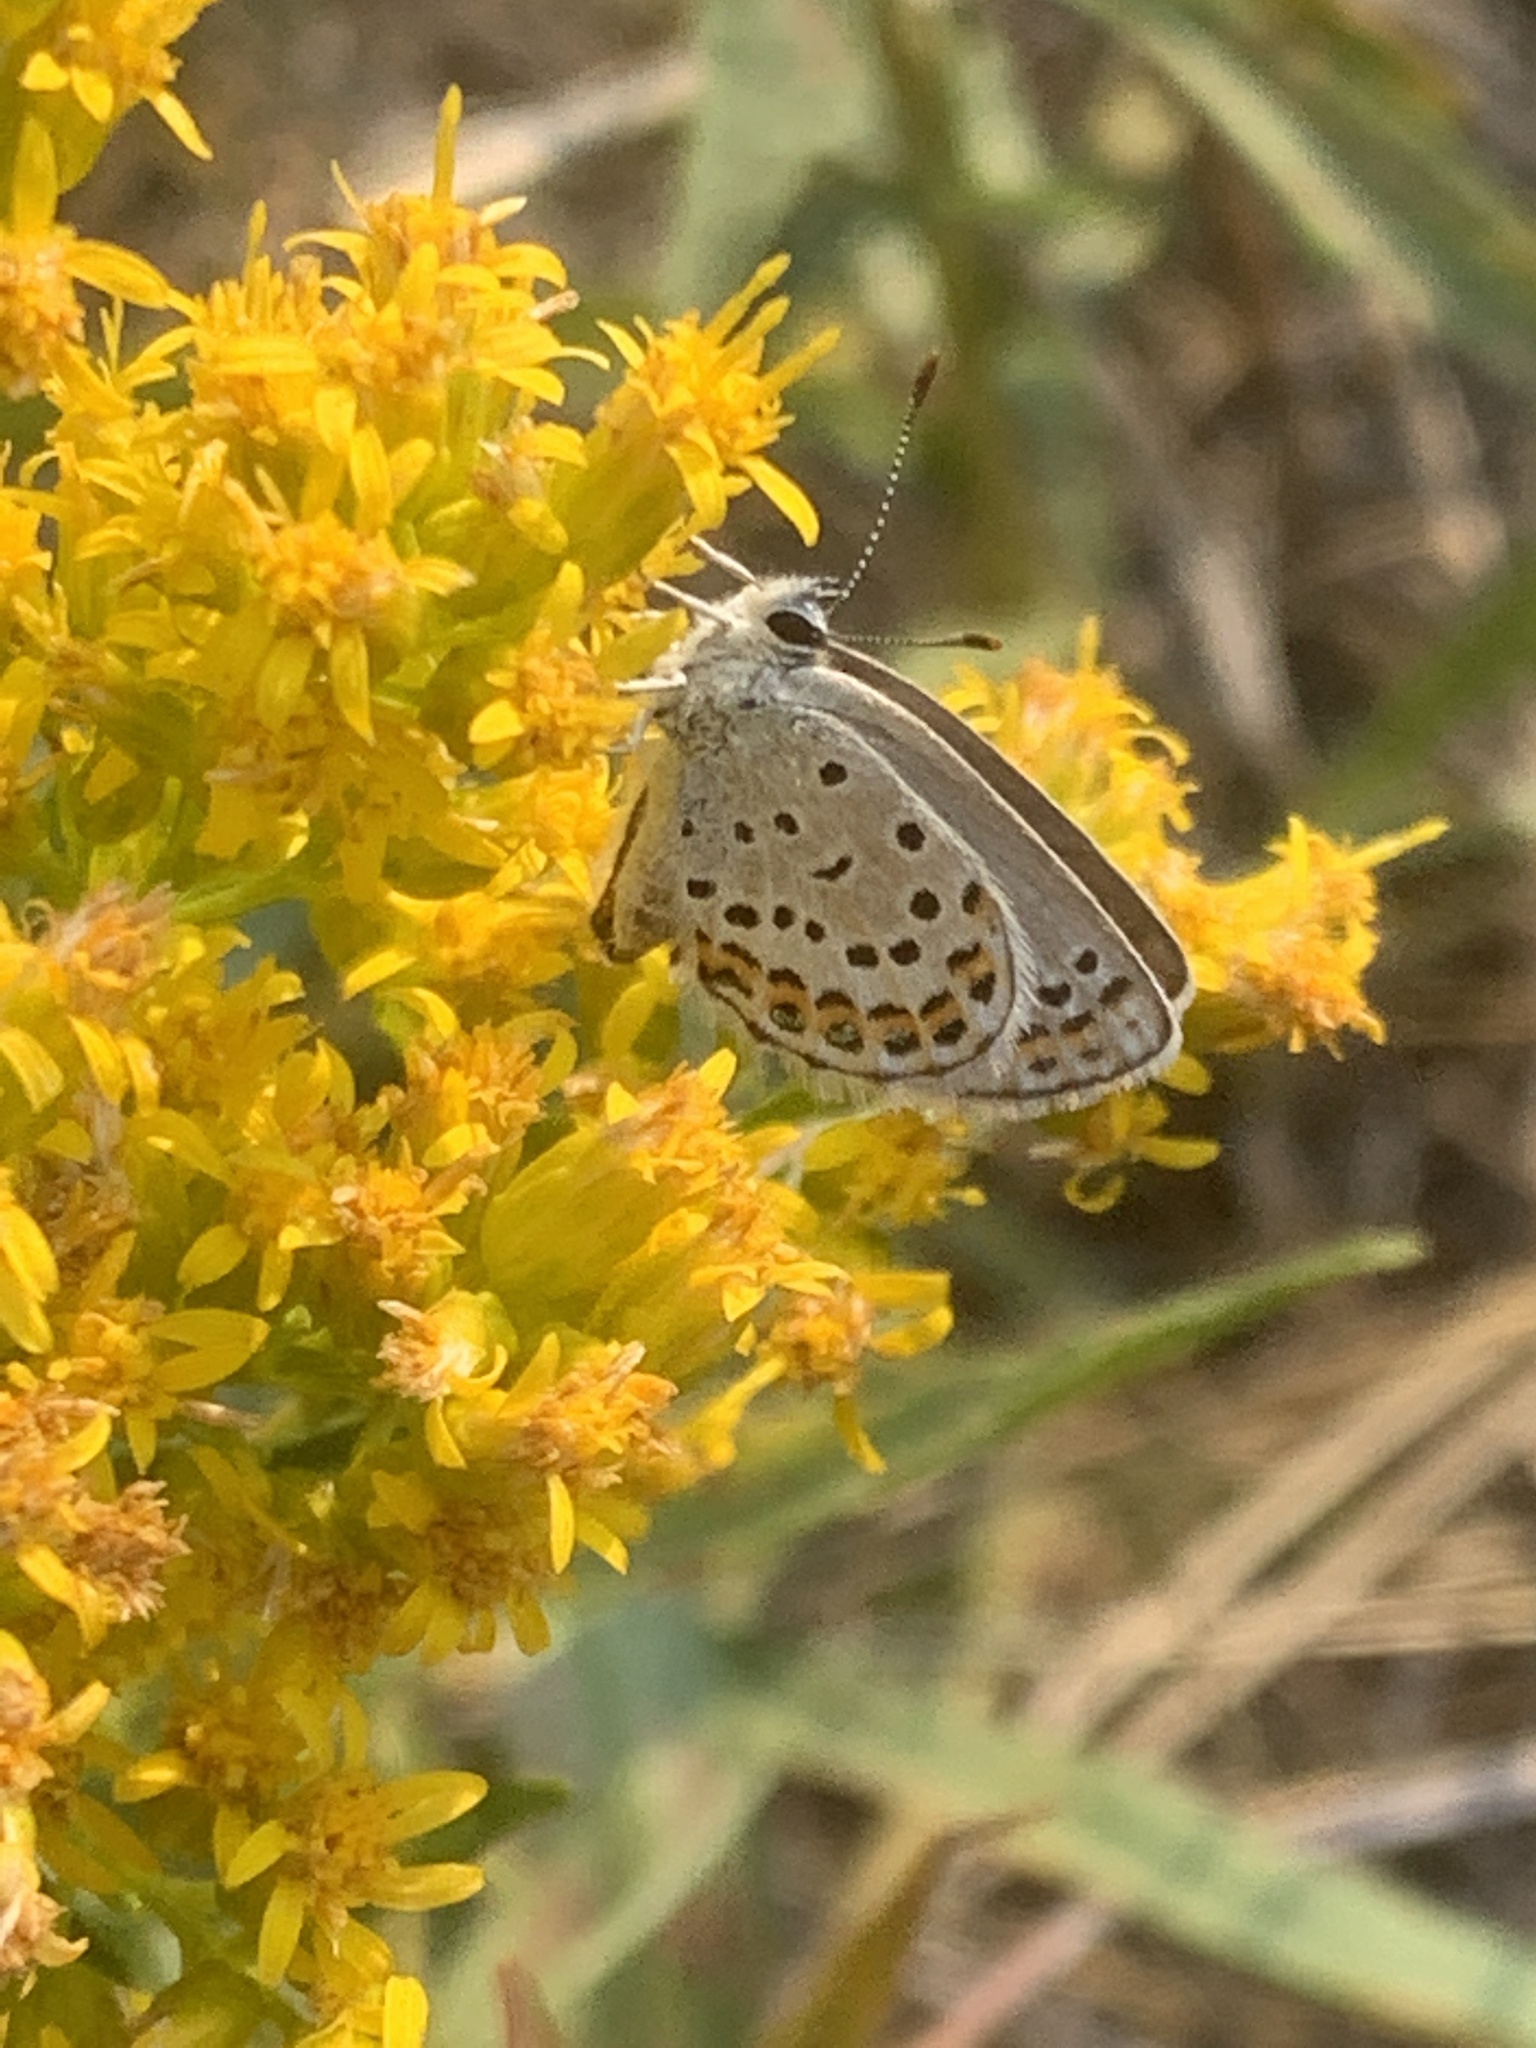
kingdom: Animalia
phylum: Arthropoda
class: Insecta
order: Lepidoptera
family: Lycaenidae
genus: Lycaeides
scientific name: Lycaeides melissa
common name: Melissa blue
